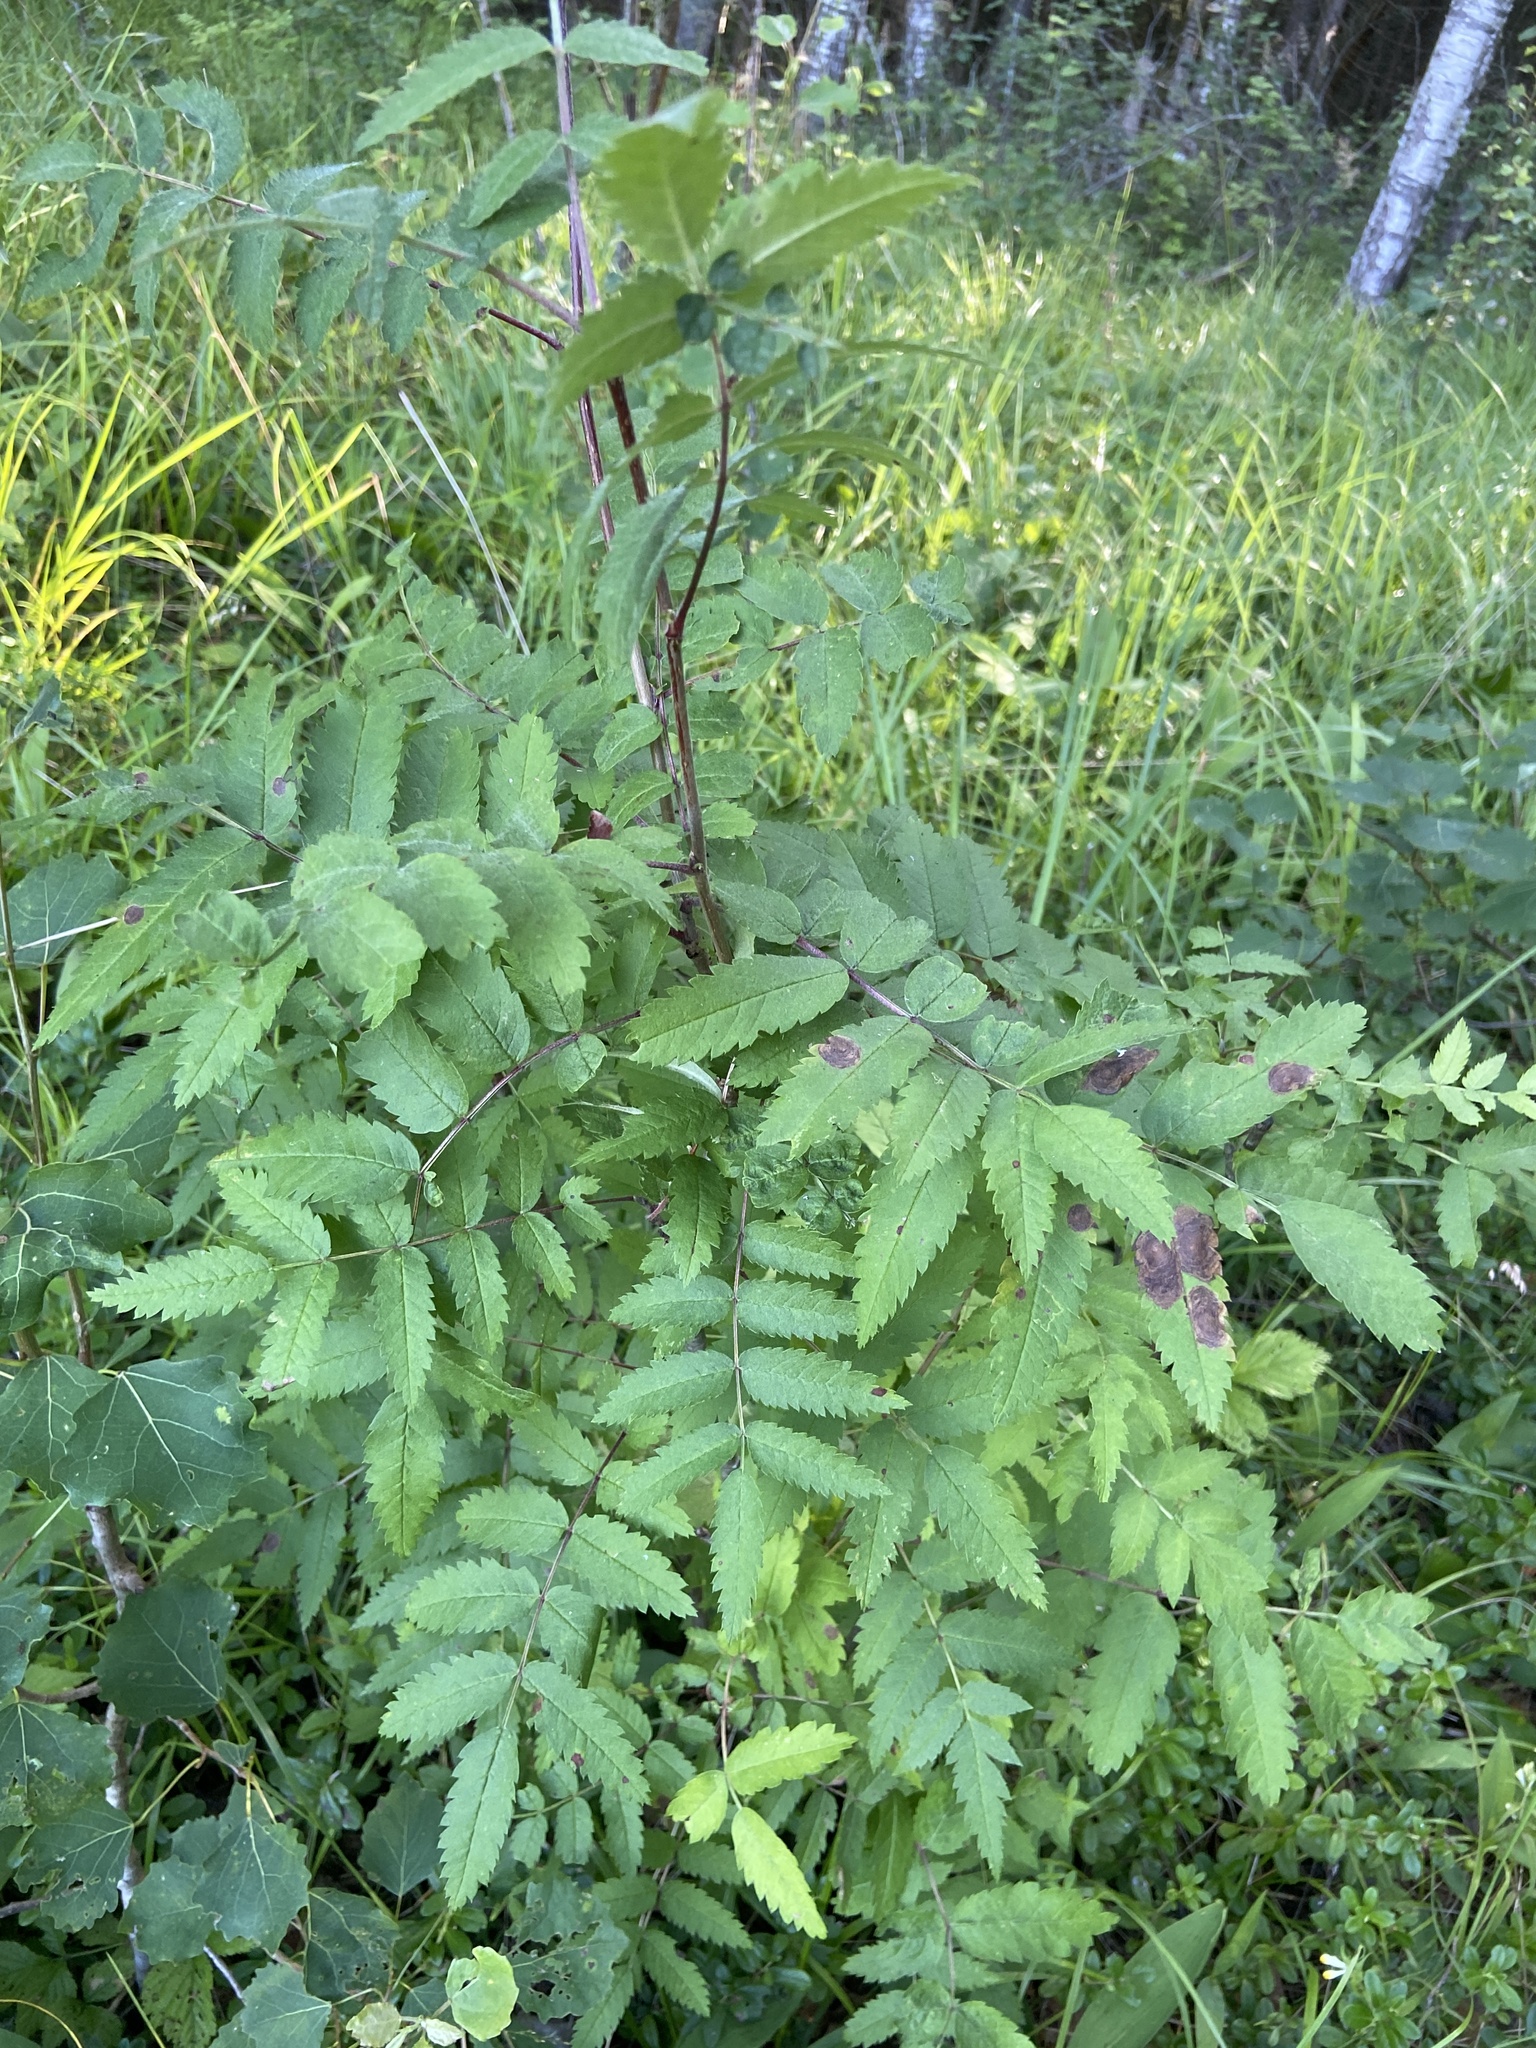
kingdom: Plantae
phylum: Tracheophyta
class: Magnoliopsida
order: Rosales
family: Rosaceae
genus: Sorbus
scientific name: Sorbus aucuparia
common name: Rowan
